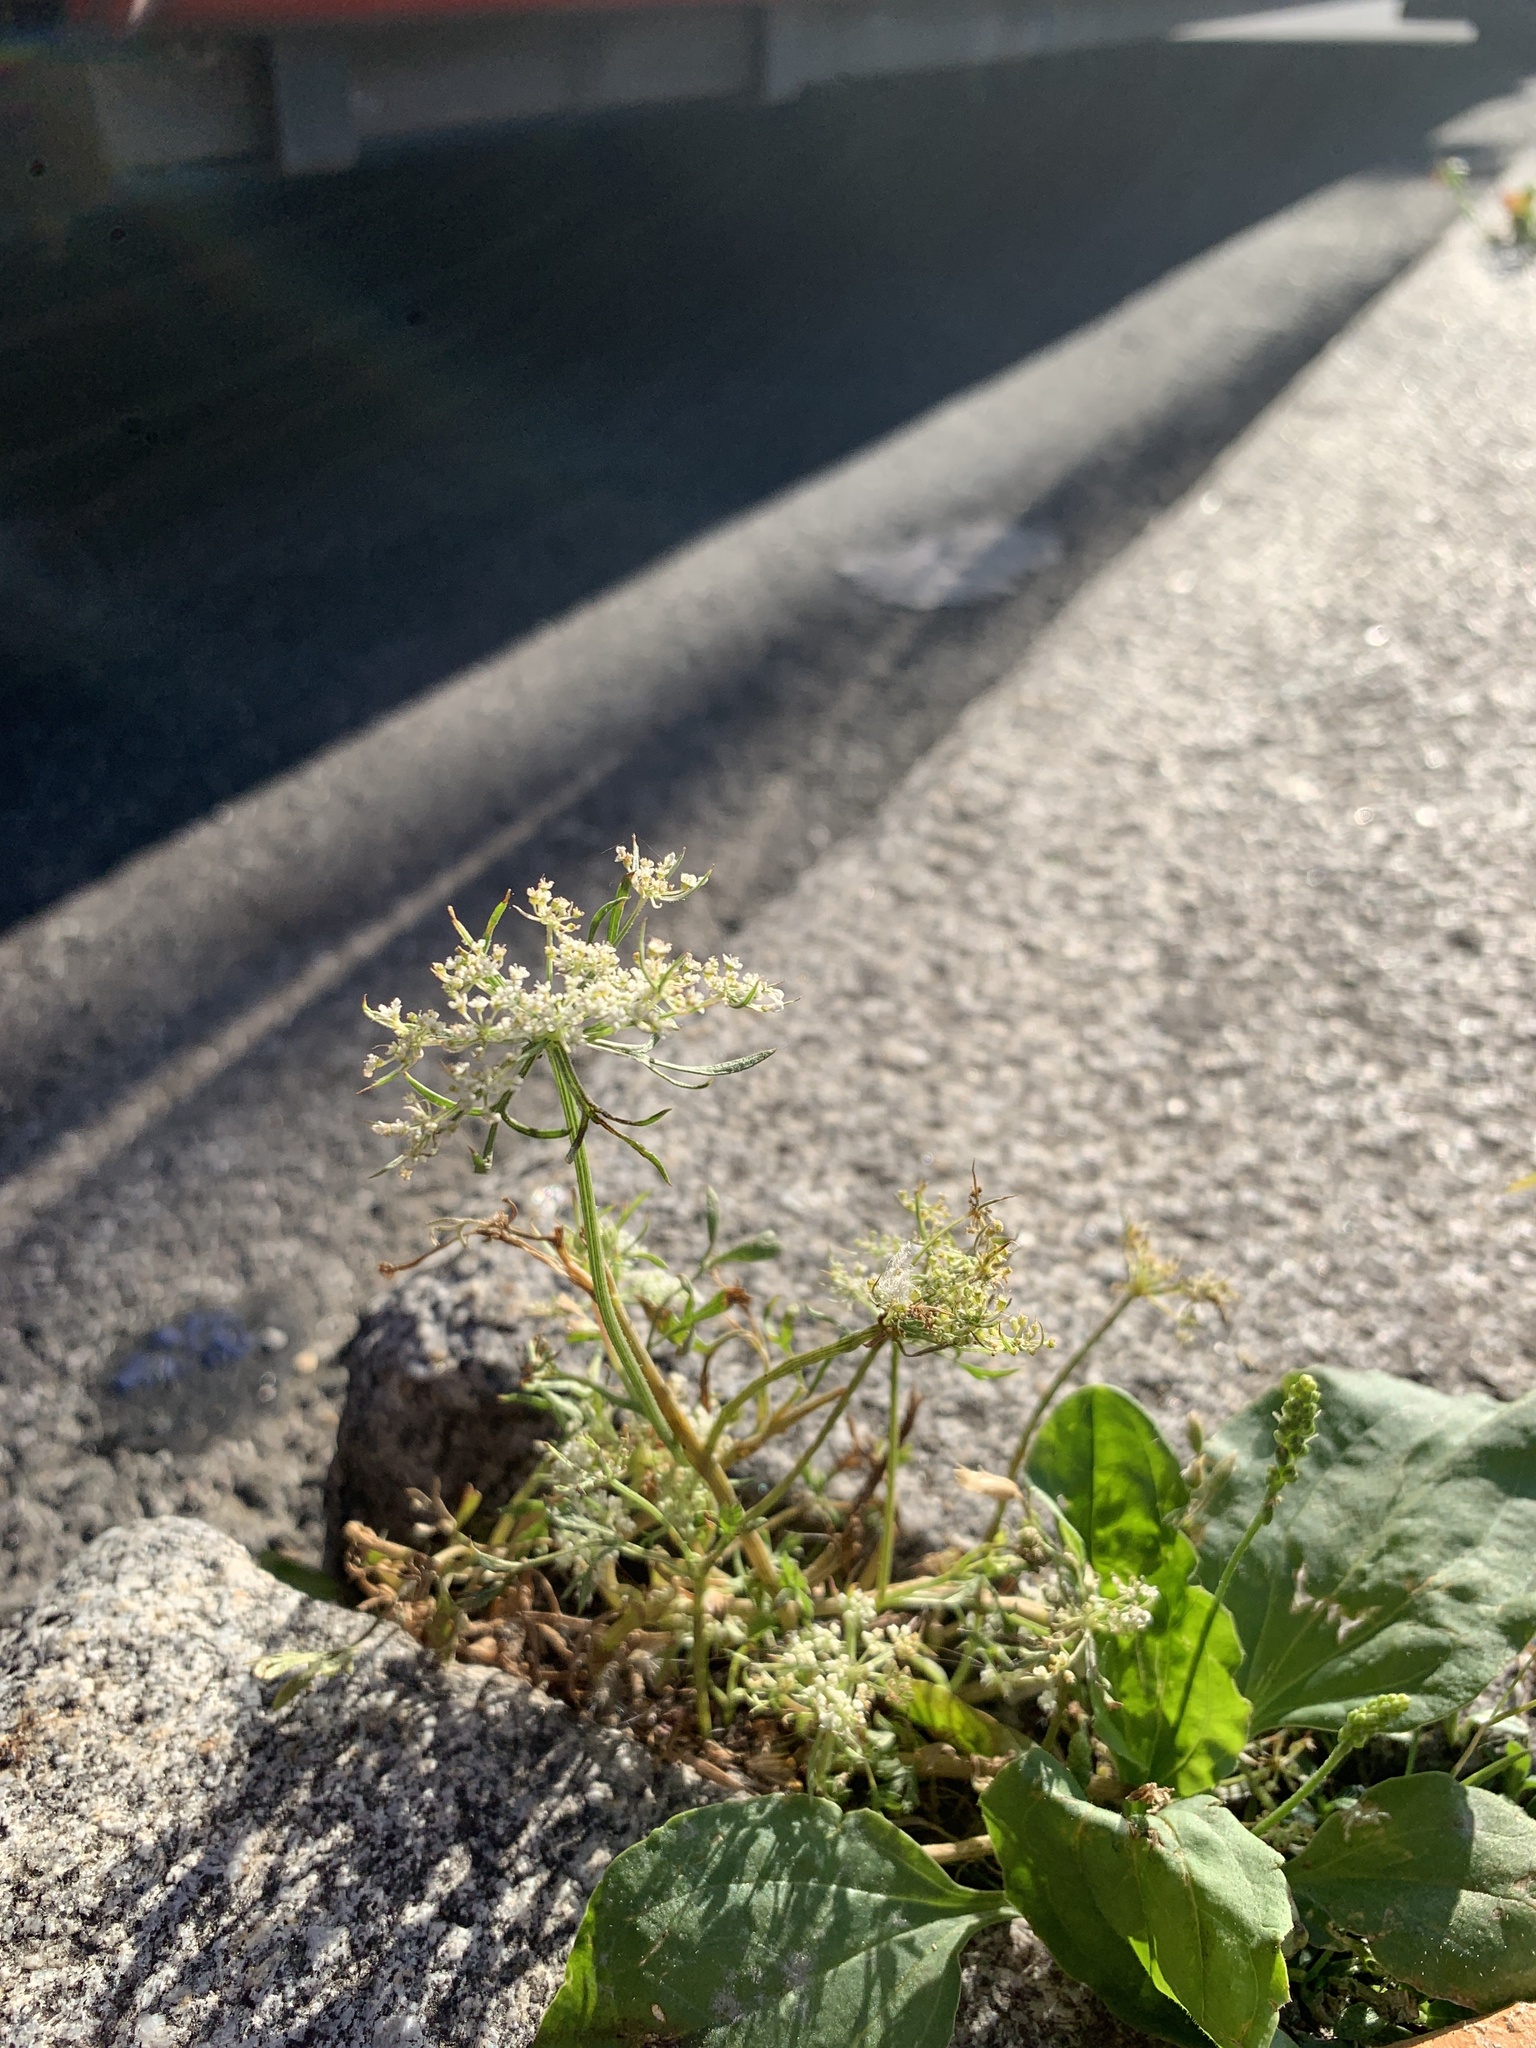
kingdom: Plantae
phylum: Tracheophyta
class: Magnoliopsida
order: Apiales
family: Apiaceae
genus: Daucus
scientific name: Daucus carota
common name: Wild carrot
